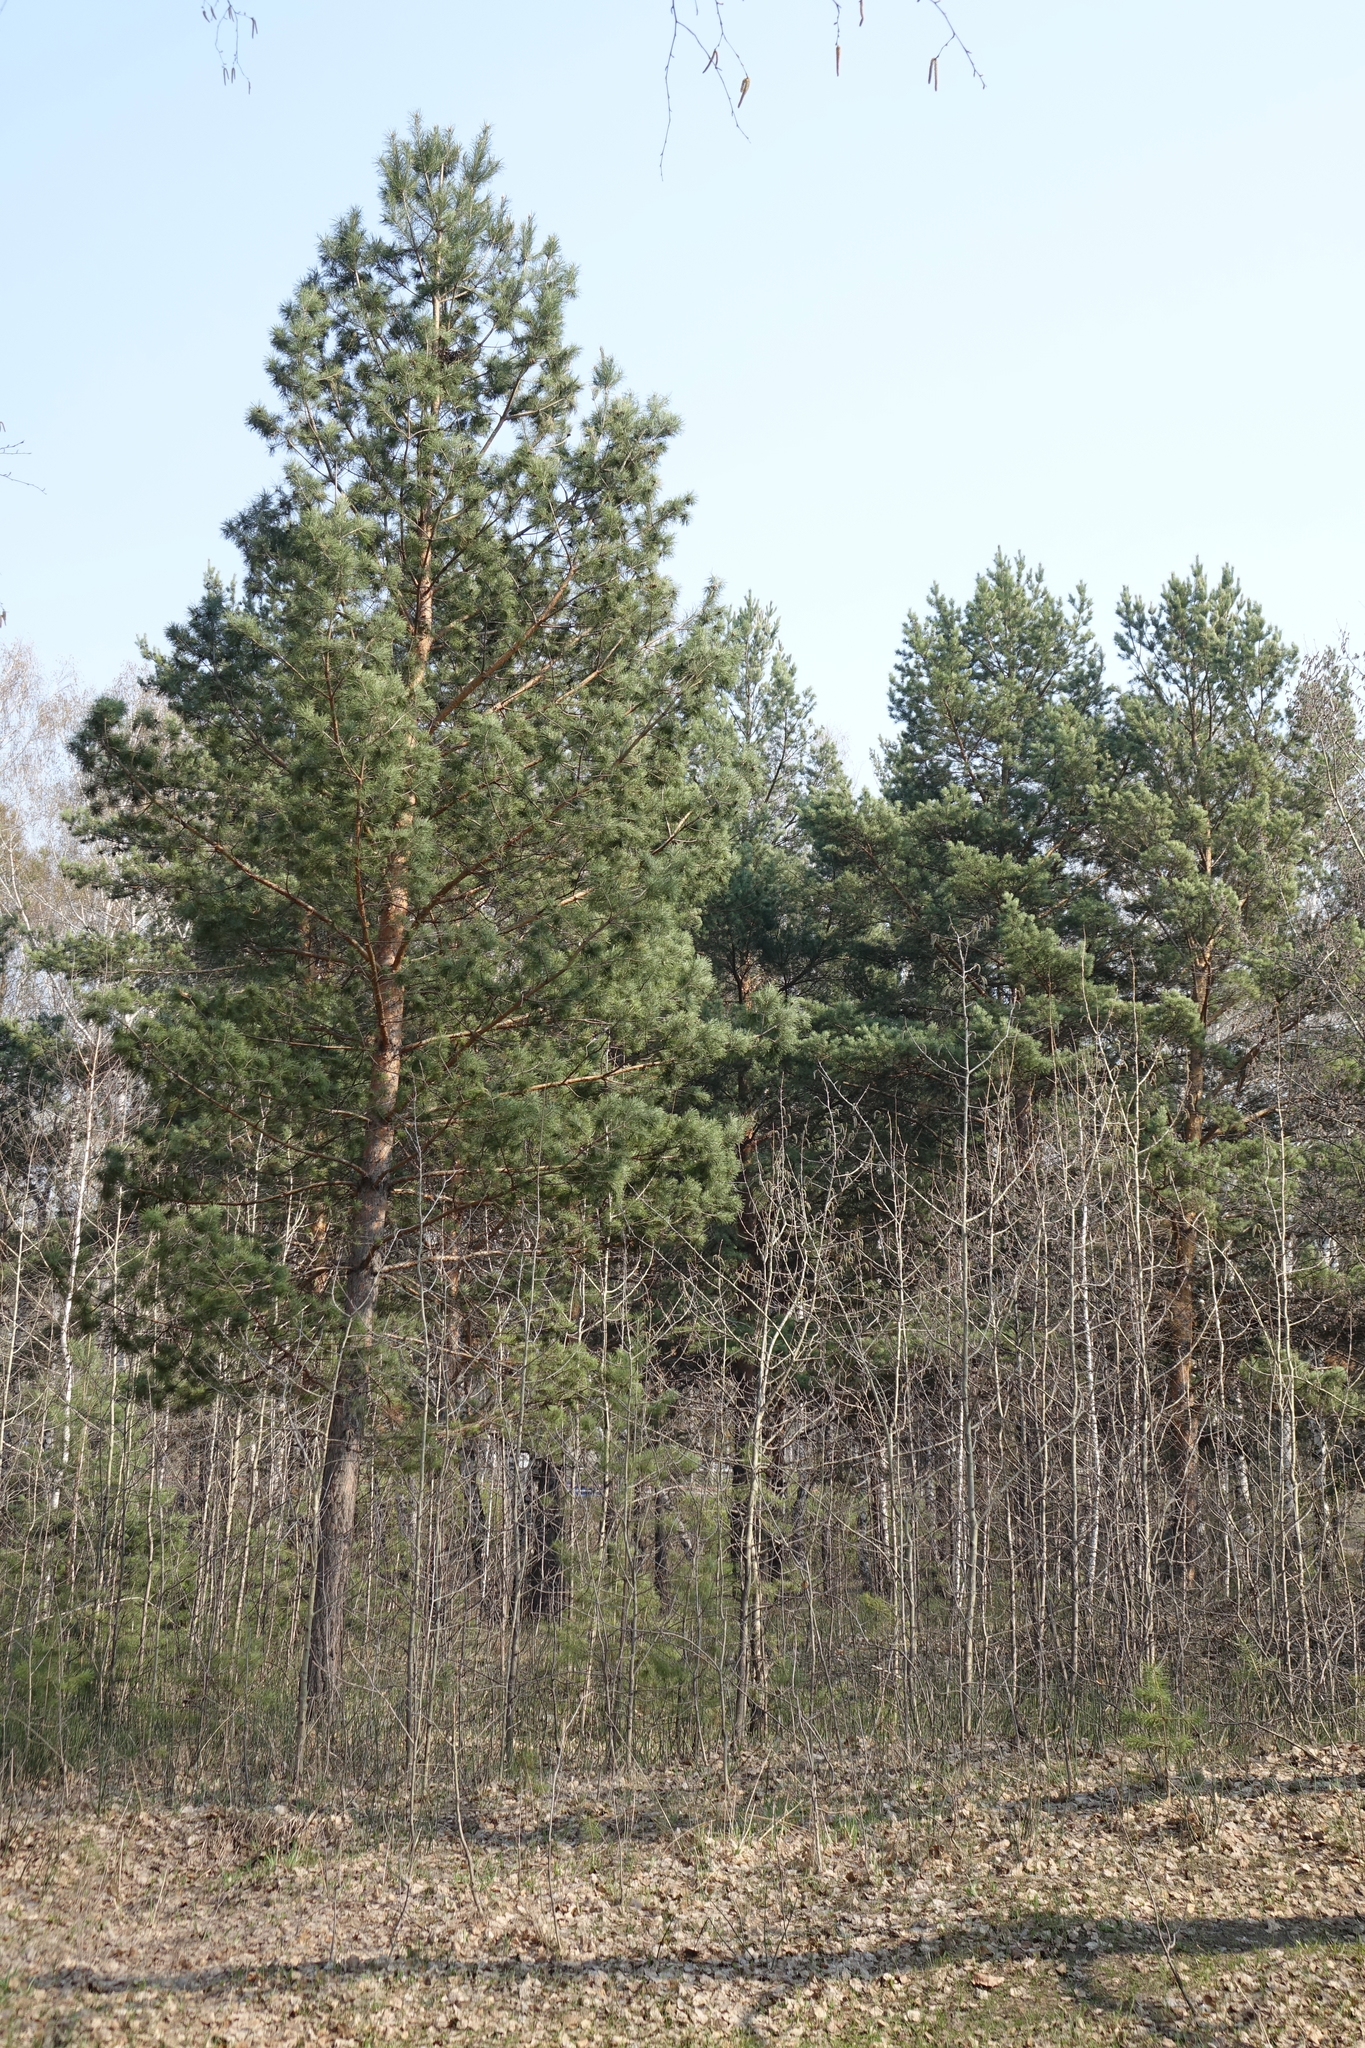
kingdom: Plantae
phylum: Tracheophyta
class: Pinopsida
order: Pinales
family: Pinaceae
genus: Pinus
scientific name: Pinus sylvestris
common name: Scots pine
